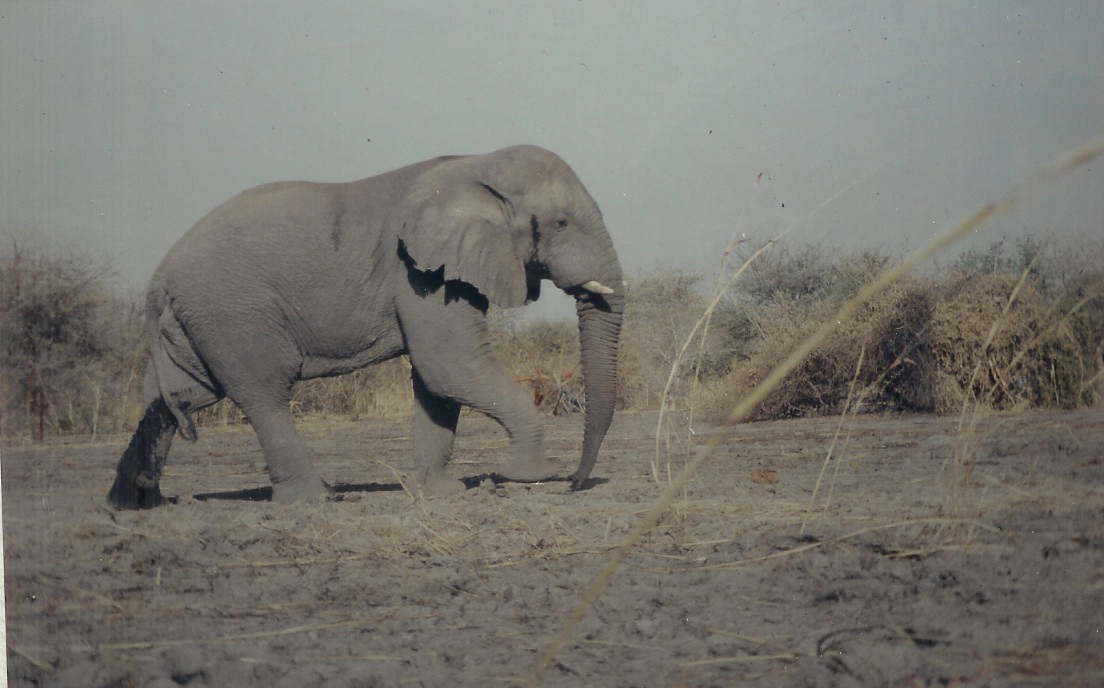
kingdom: Animalia
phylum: Chordata
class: Mammalia
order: Proboscidea
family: Elephantidae
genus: Loxodonta
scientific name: Loxodonta africana
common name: African elephant
